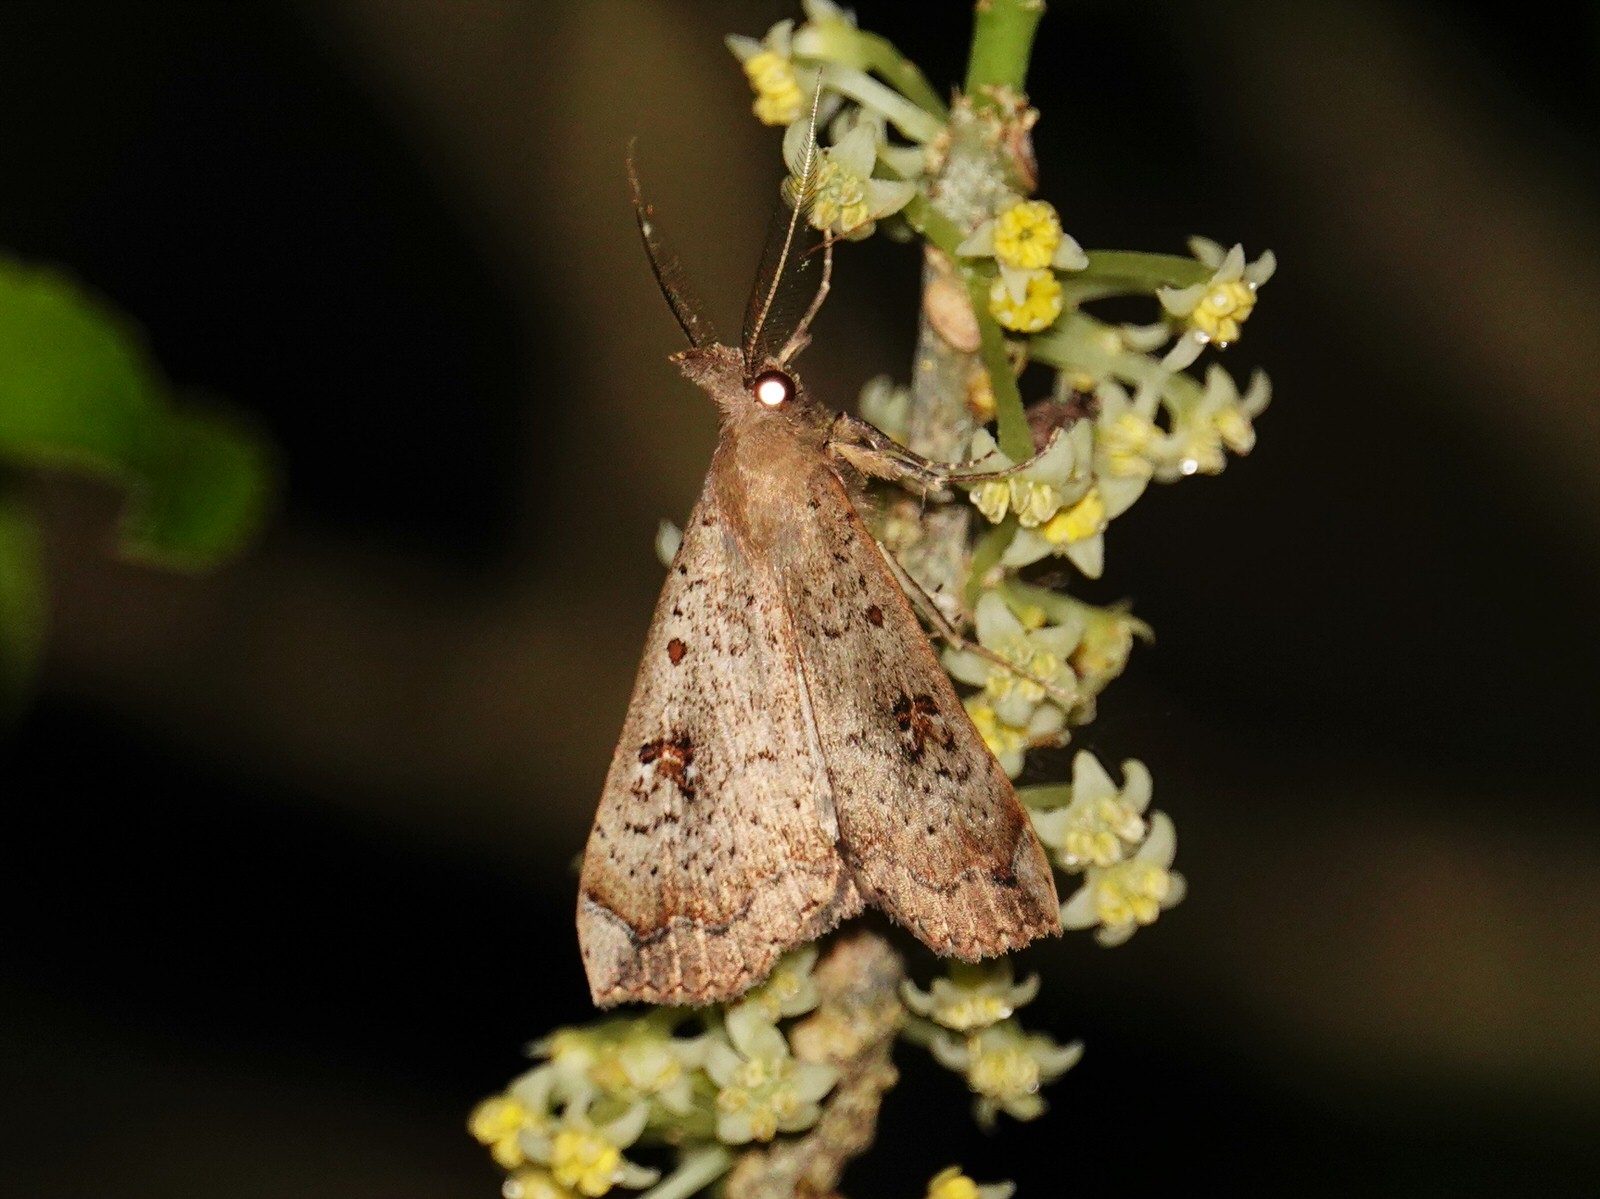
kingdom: Animalia
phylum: Arthropoda
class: Insecta
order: Lepidoptera
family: Erebidae
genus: Rhapsa
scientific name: Rhapsa scotosialis
